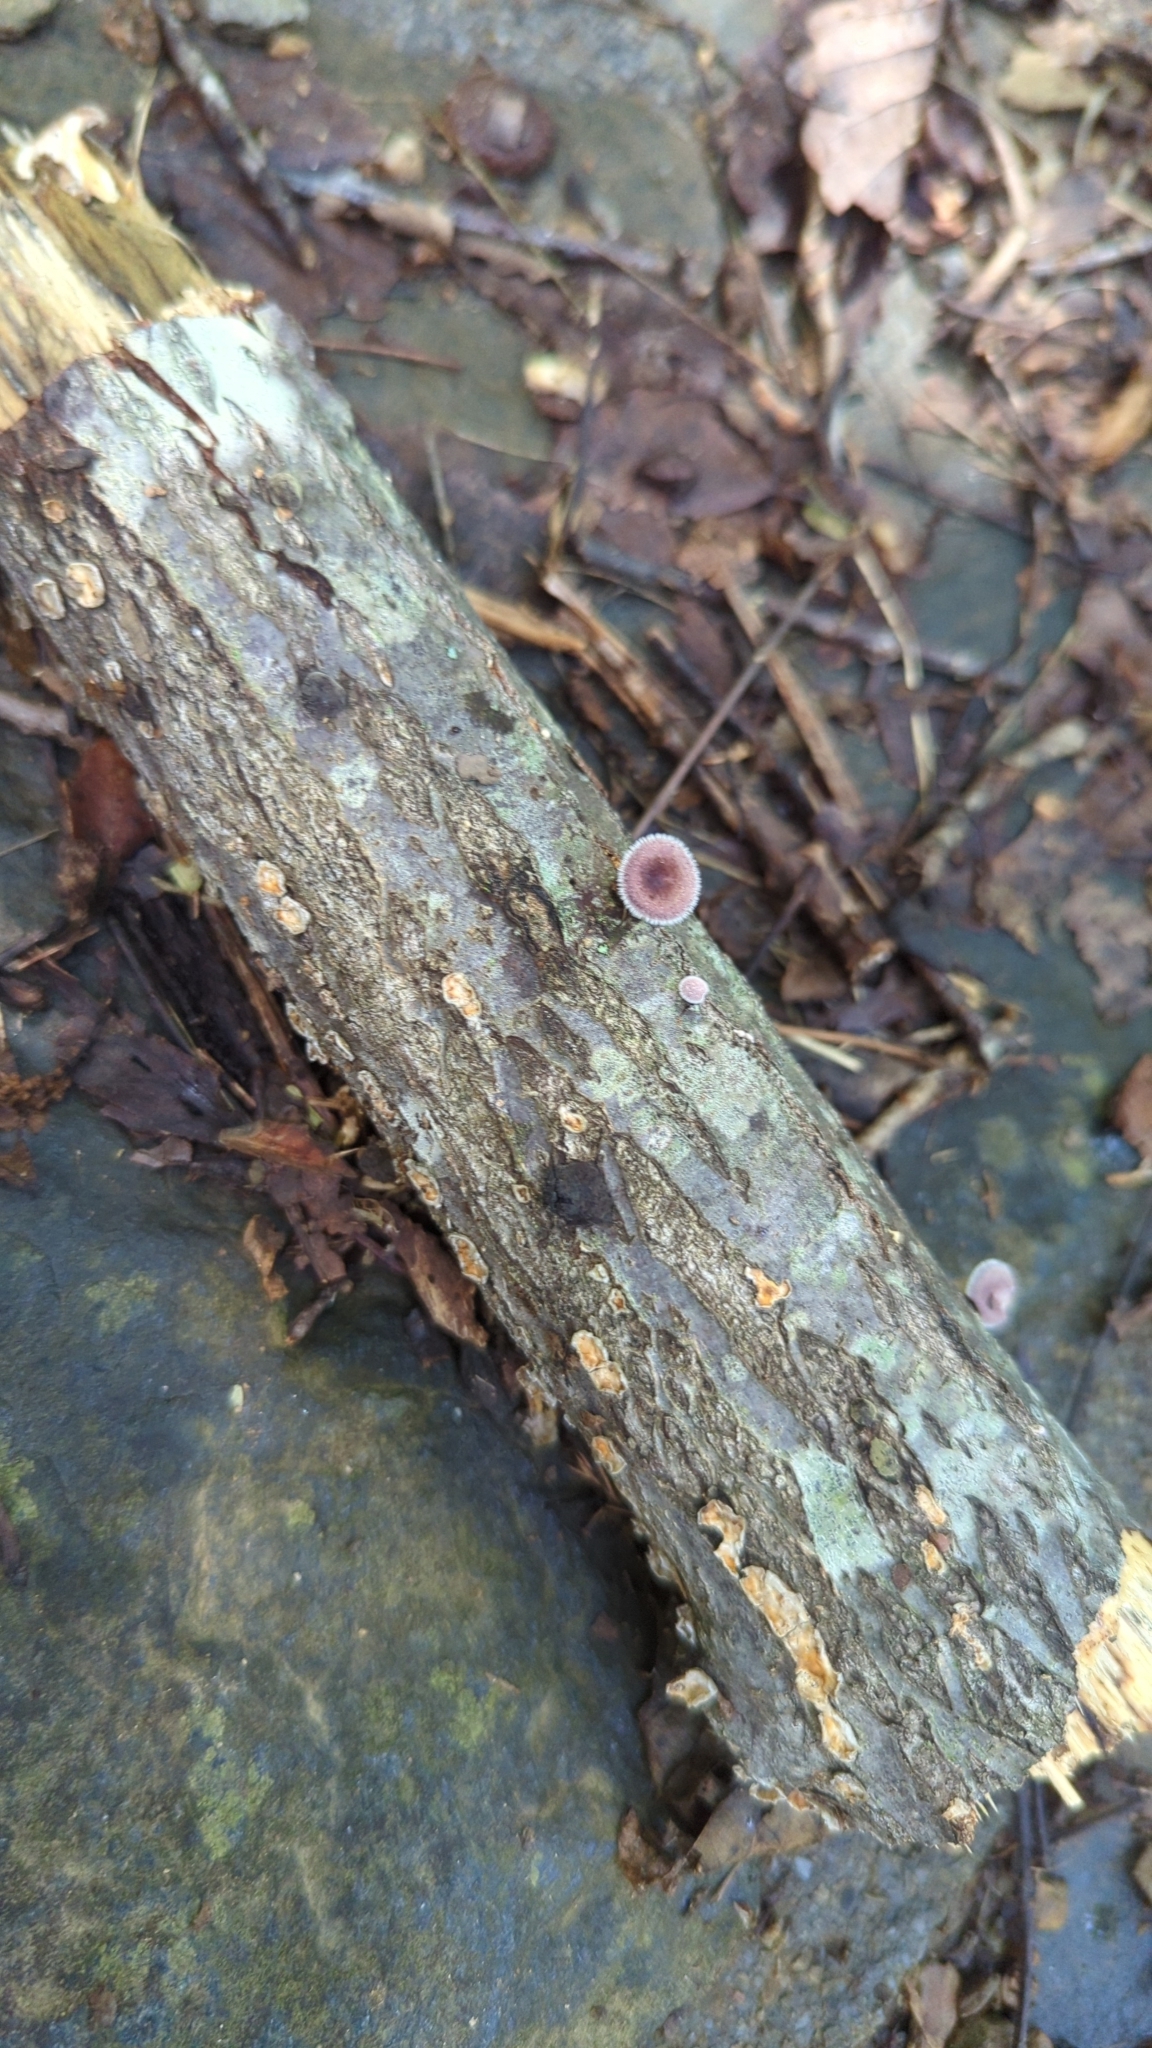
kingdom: Fungi
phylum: Basidiomycota
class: Agaricomycetes
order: Polyporales
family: Panaceae
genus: Panus
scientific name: Panus neostrigosus
